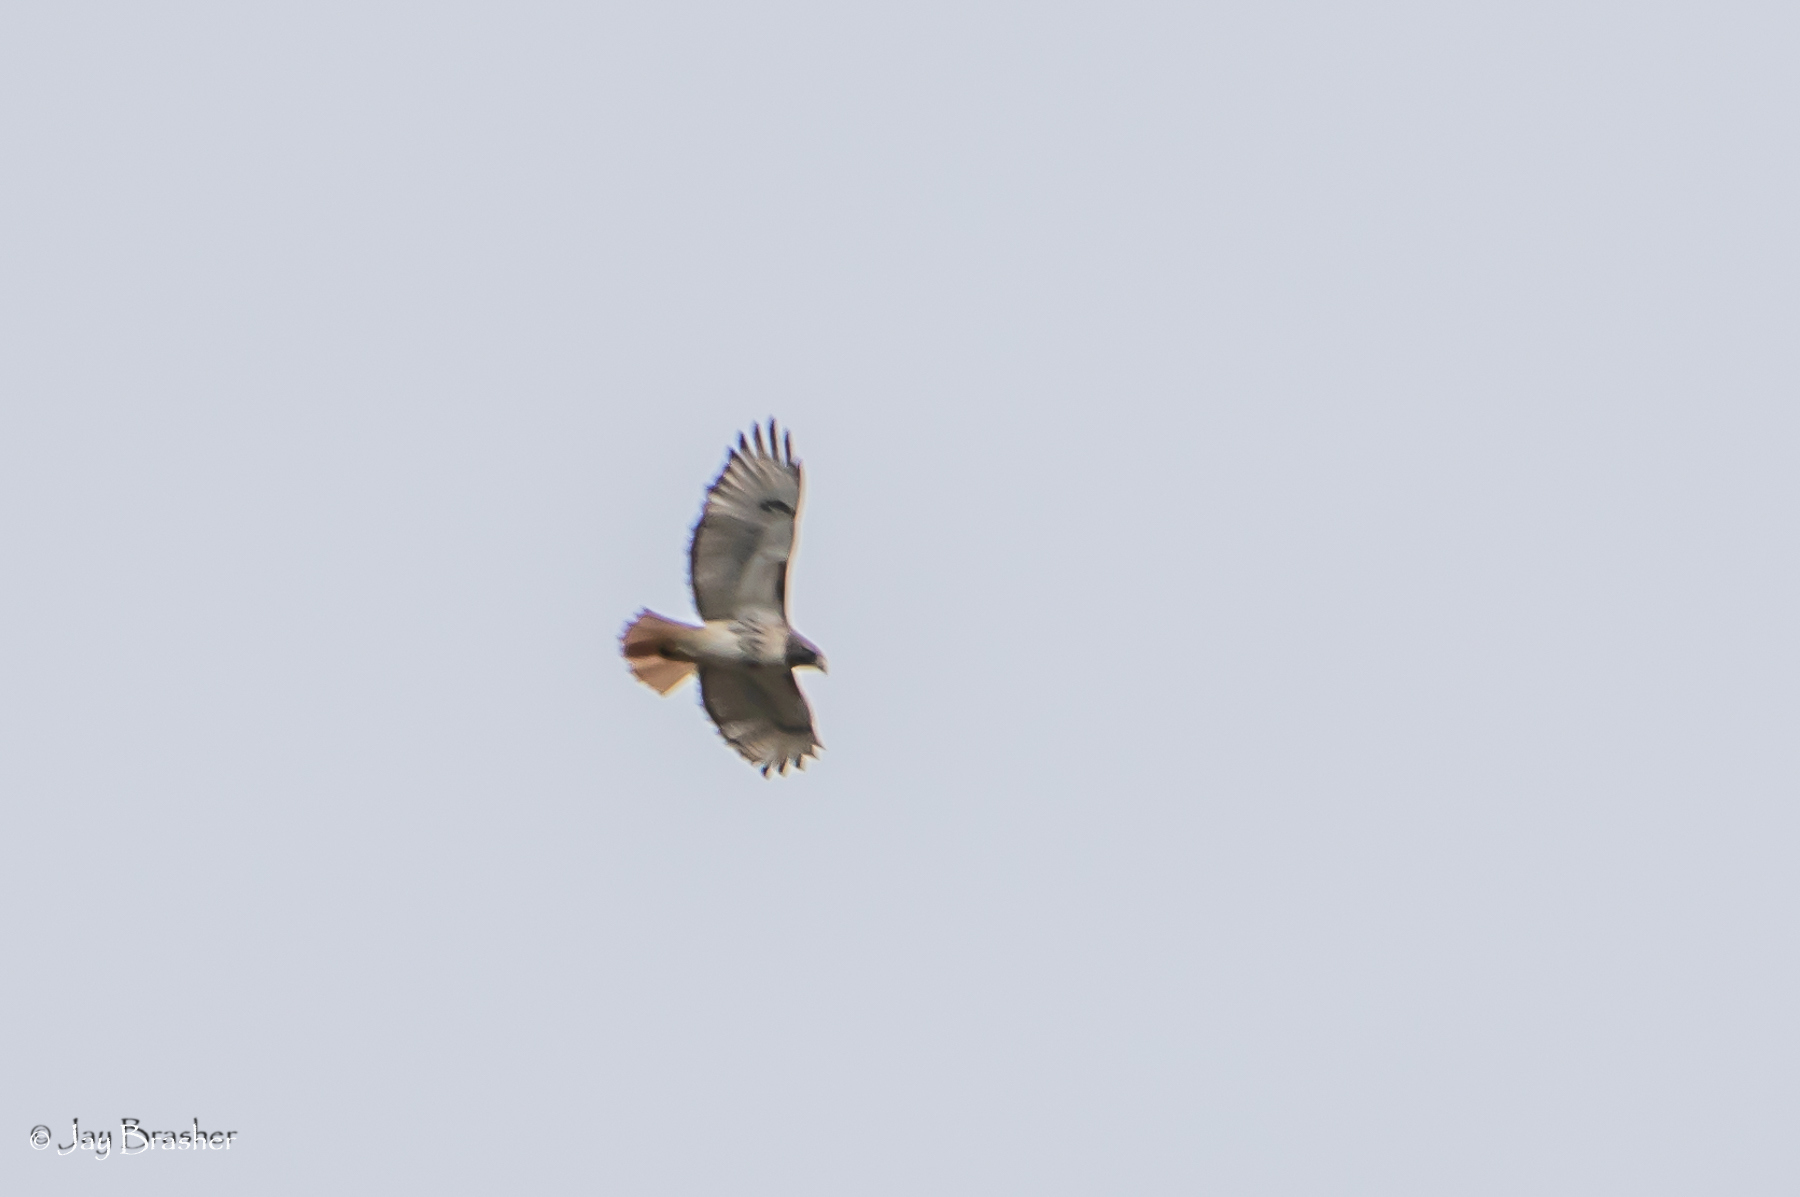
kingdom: Animalia
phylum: Chordata
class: Aves
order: Accipitriformes
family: Accipitridae
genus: Buteo
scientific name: Buteo jamaicensis
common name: Red-tailed hawk
